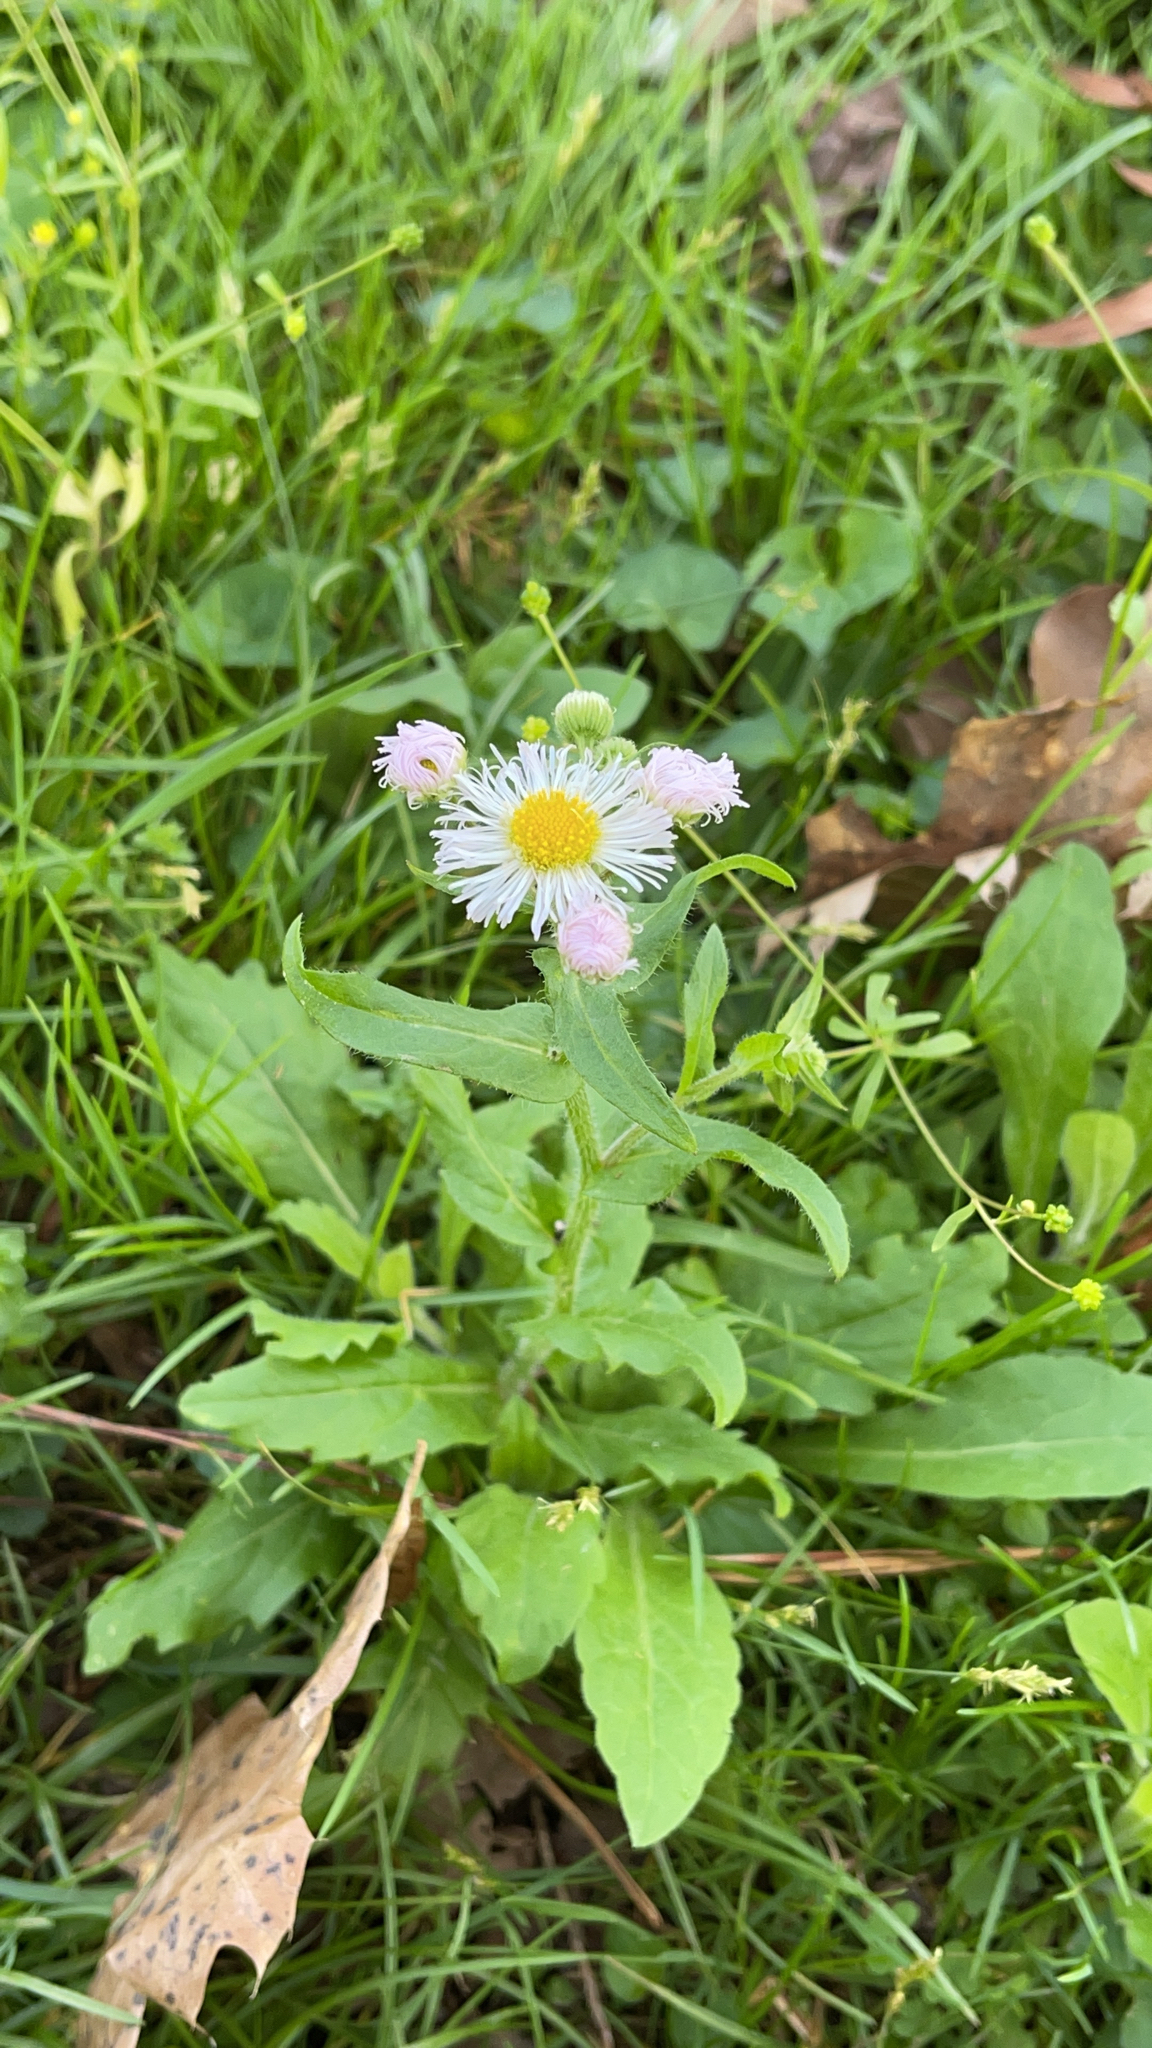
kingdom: Plantae
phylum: Tracheophyta
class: Magnoliopsida
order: Asterales
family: Asteraceae
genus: Erigeron
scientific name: Erigeron philadelphicus
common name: Robin's-plantain
